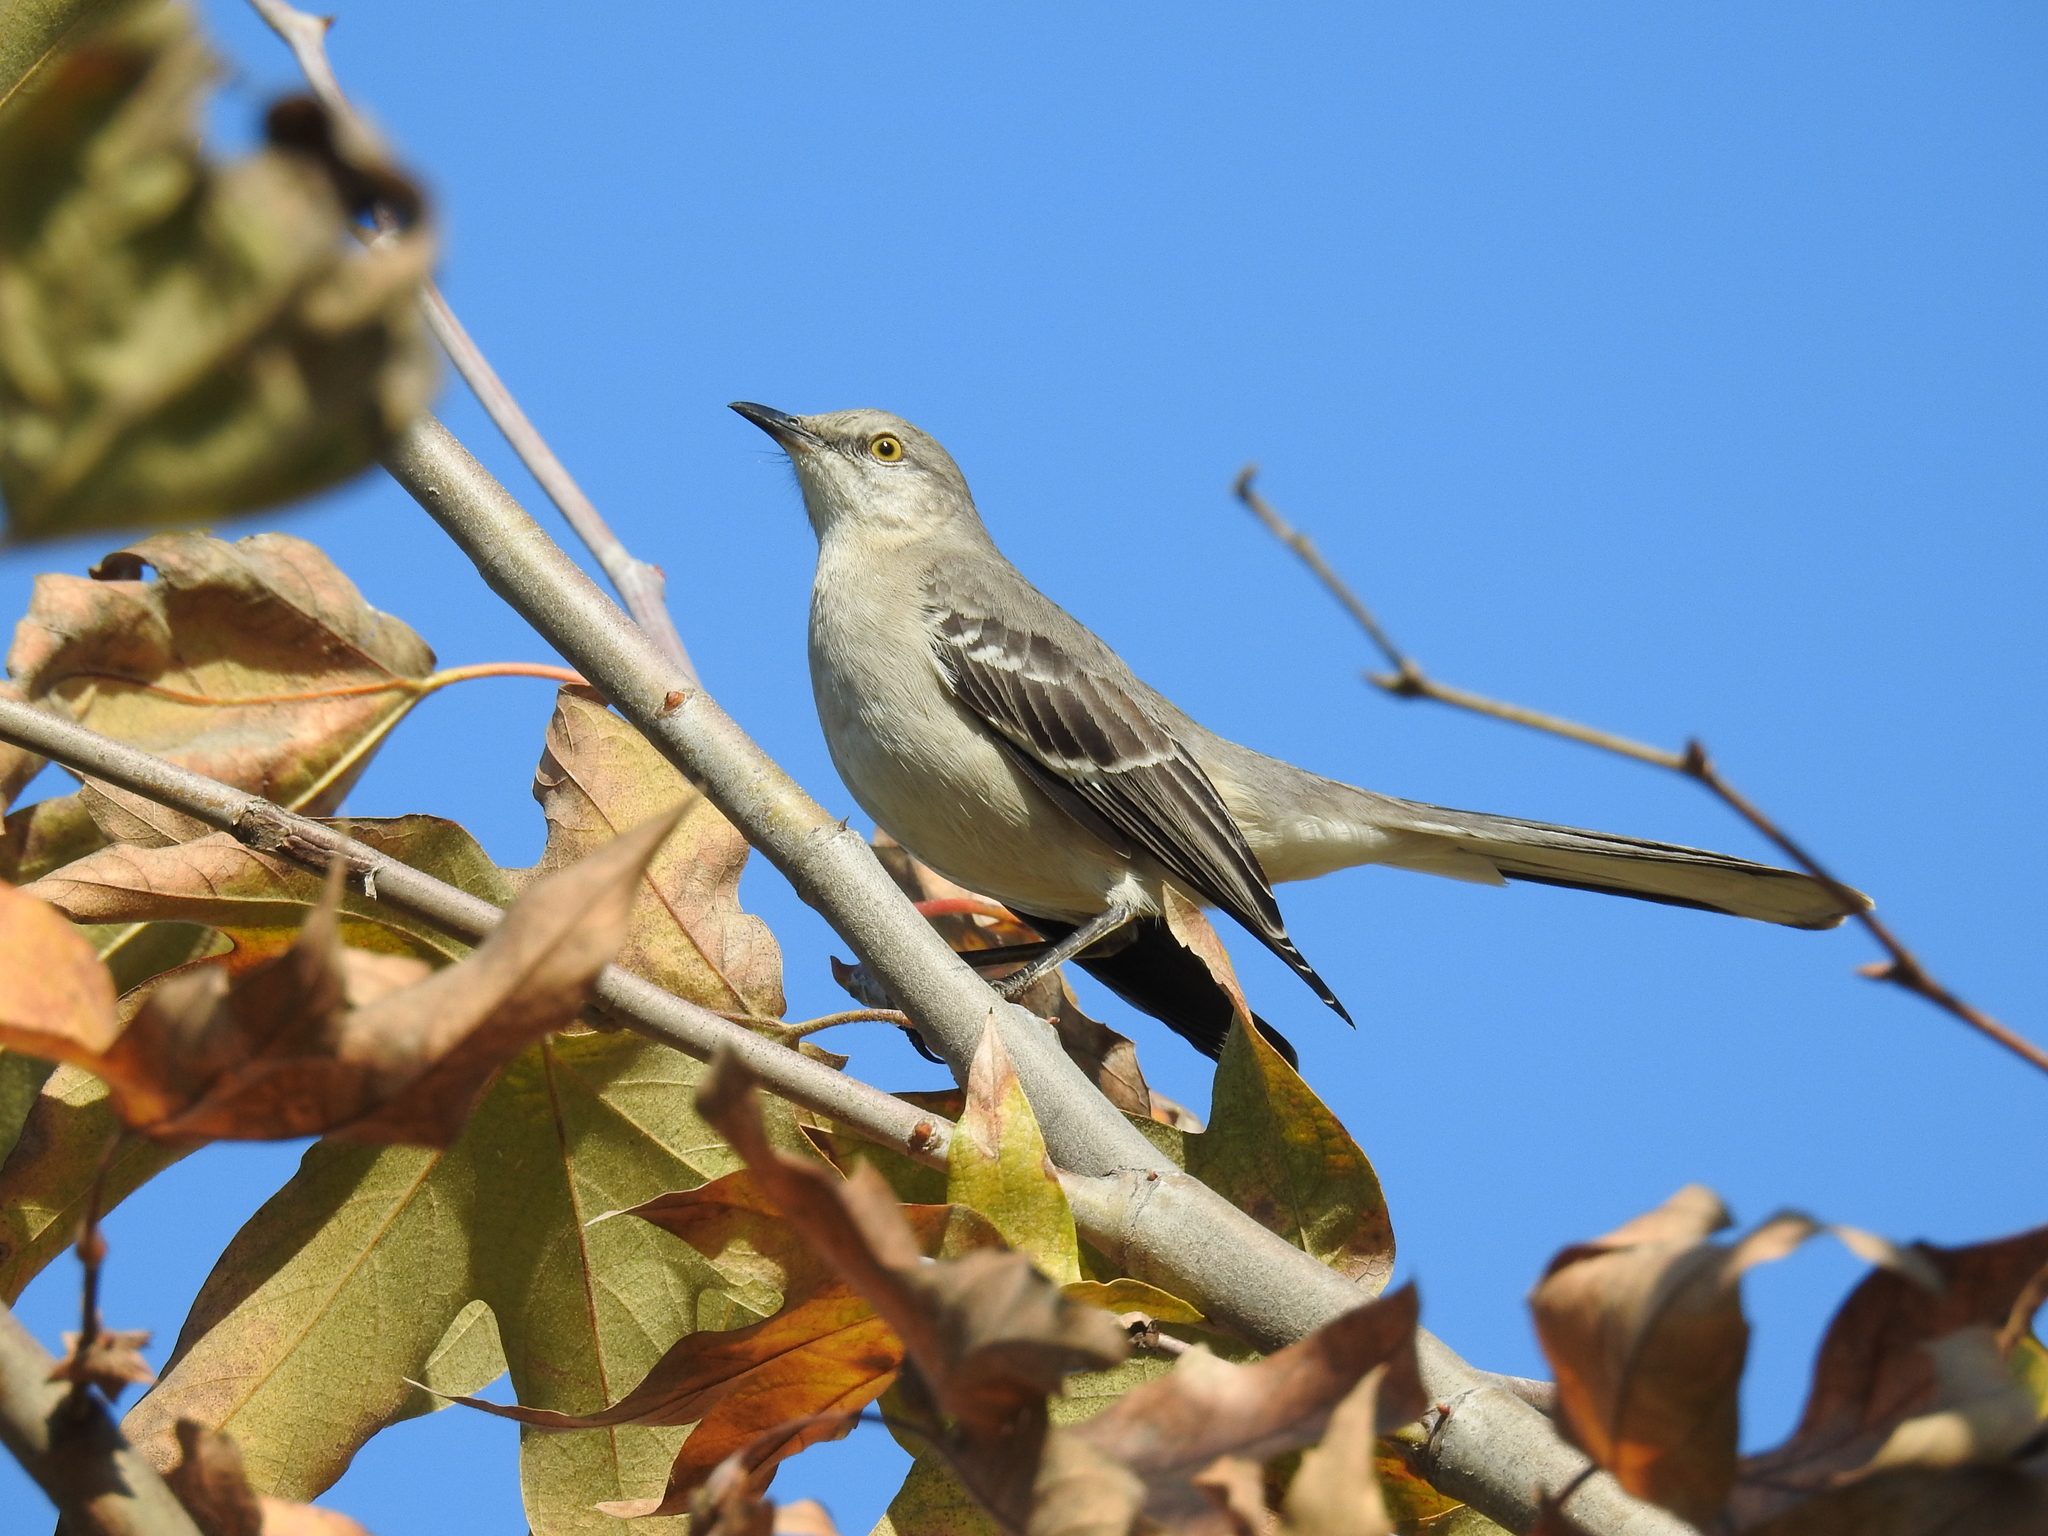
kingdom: Animalia
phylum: Chordata
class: Aves
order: Passeriformes
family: Mimidae
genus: Mimus
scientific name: Mimus polyglottos
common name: Northern mockingbird
